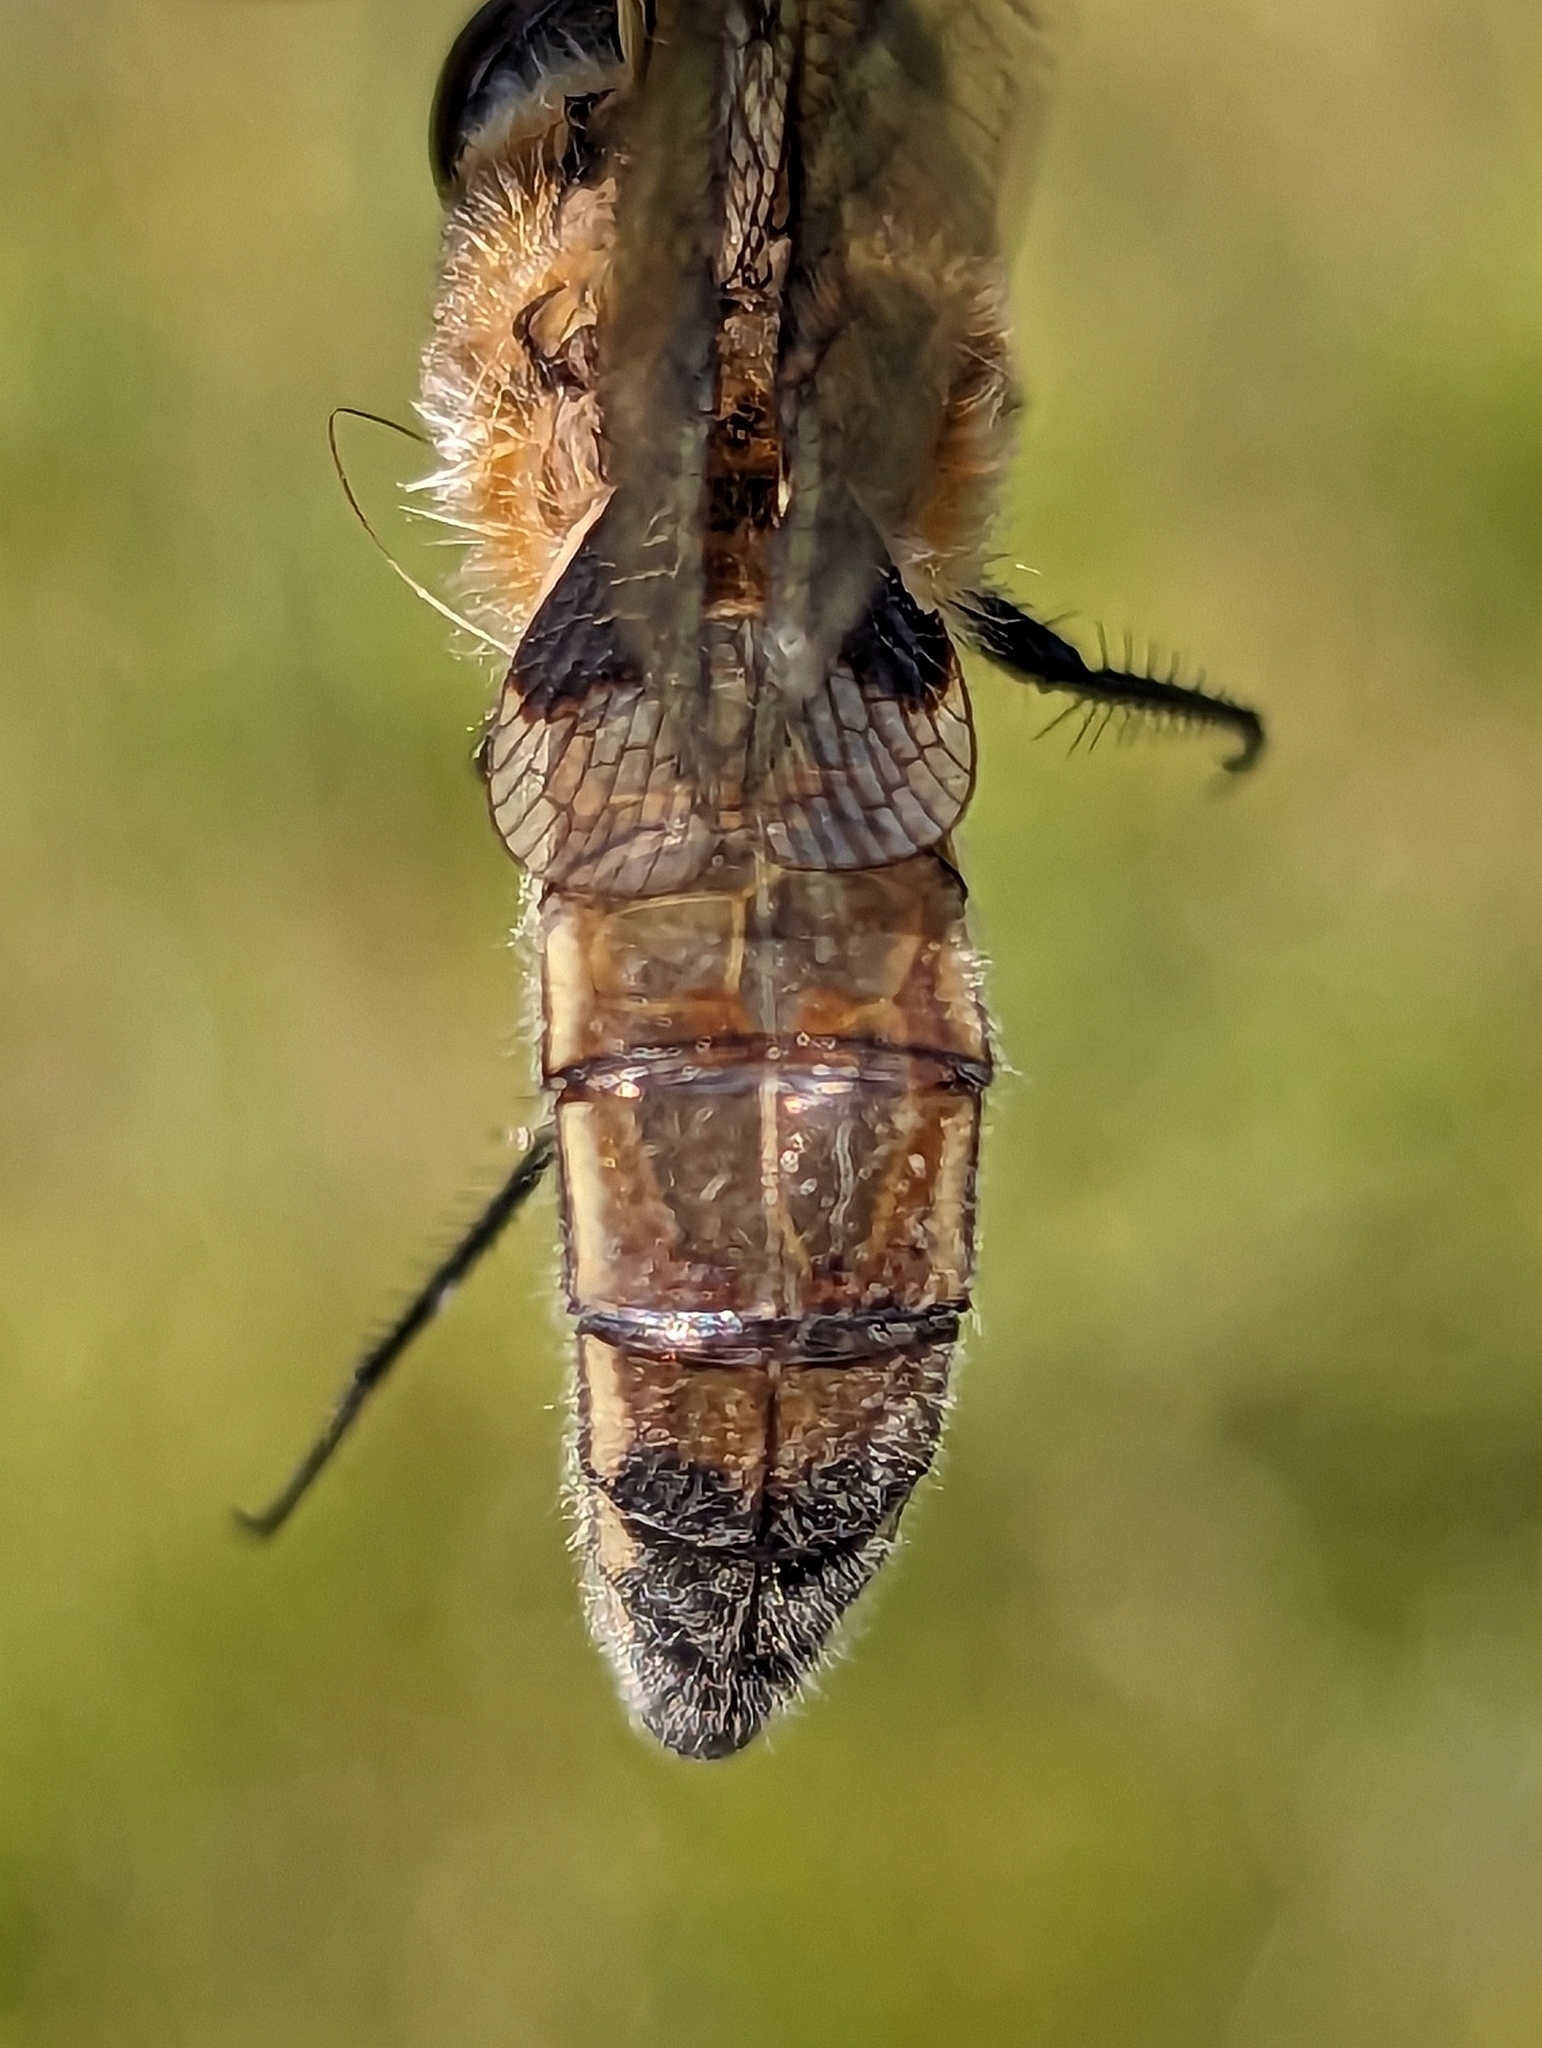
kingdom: Animalia
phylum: Arthropoda
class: Insecta
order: Odonata
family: Libellulidae
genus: Libellula
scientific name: Libellula quadrimaculata
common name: Four-spotted chaser
